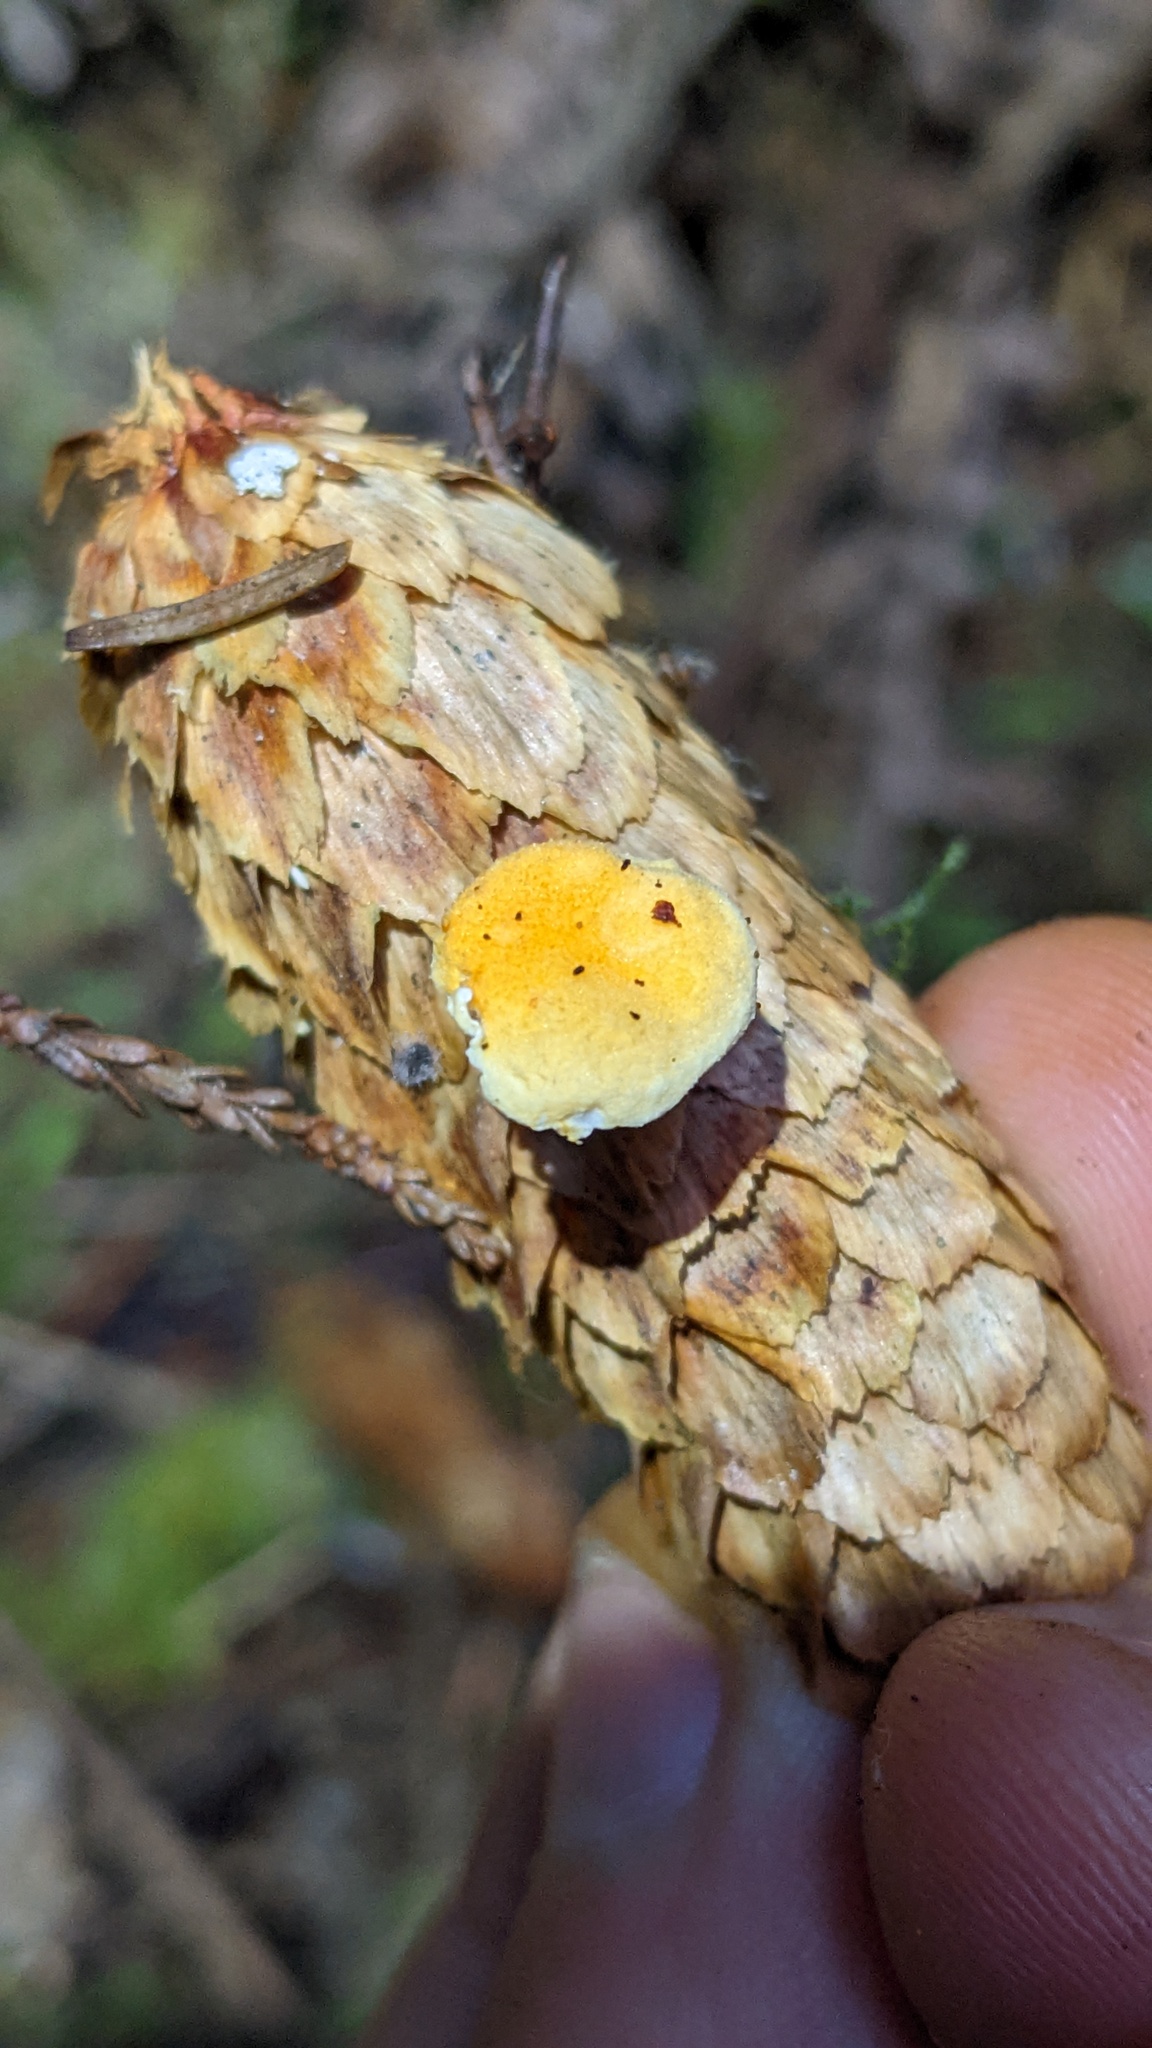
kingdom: Fungi
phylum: Basidiomycota
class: Agaricomycetes
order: Boletales
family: Hygrophoropsidaceae
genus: Hygrophoropsis
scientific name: Hygrophoropsis aurantiaca
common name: False chanterelle
